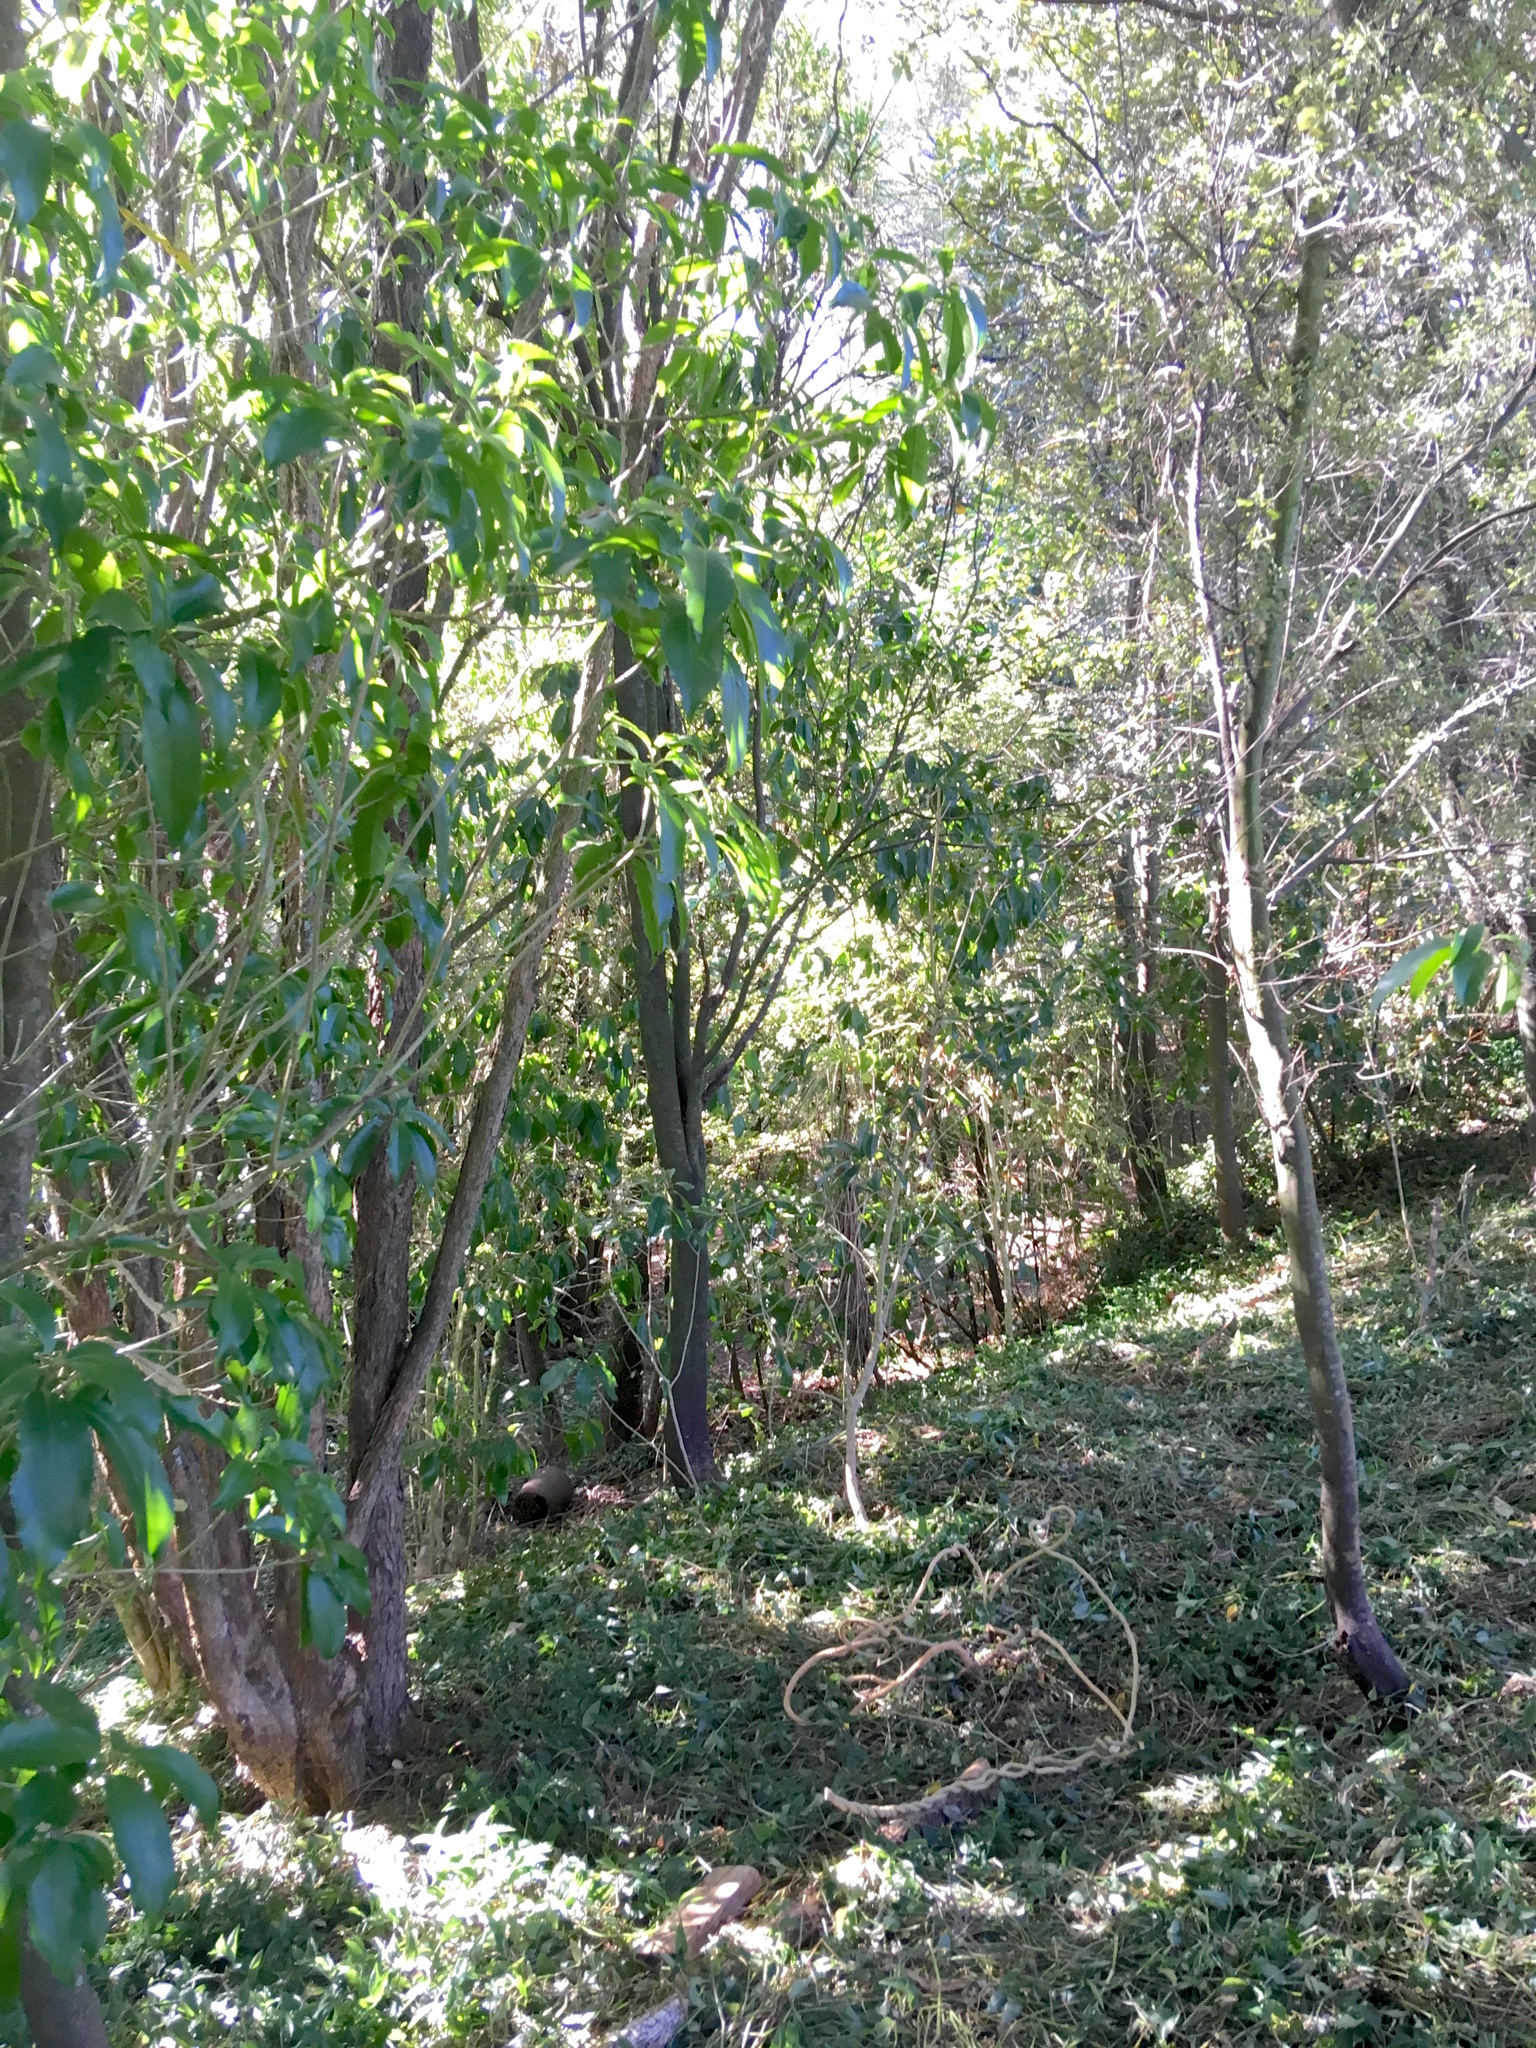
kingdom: Plantae
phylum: Tracheophyta
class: Magnoliopsida
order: Malpighiales
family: Violaceae
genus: Melicytus
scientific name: Melicytus ramiflorus
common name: Mahoe
